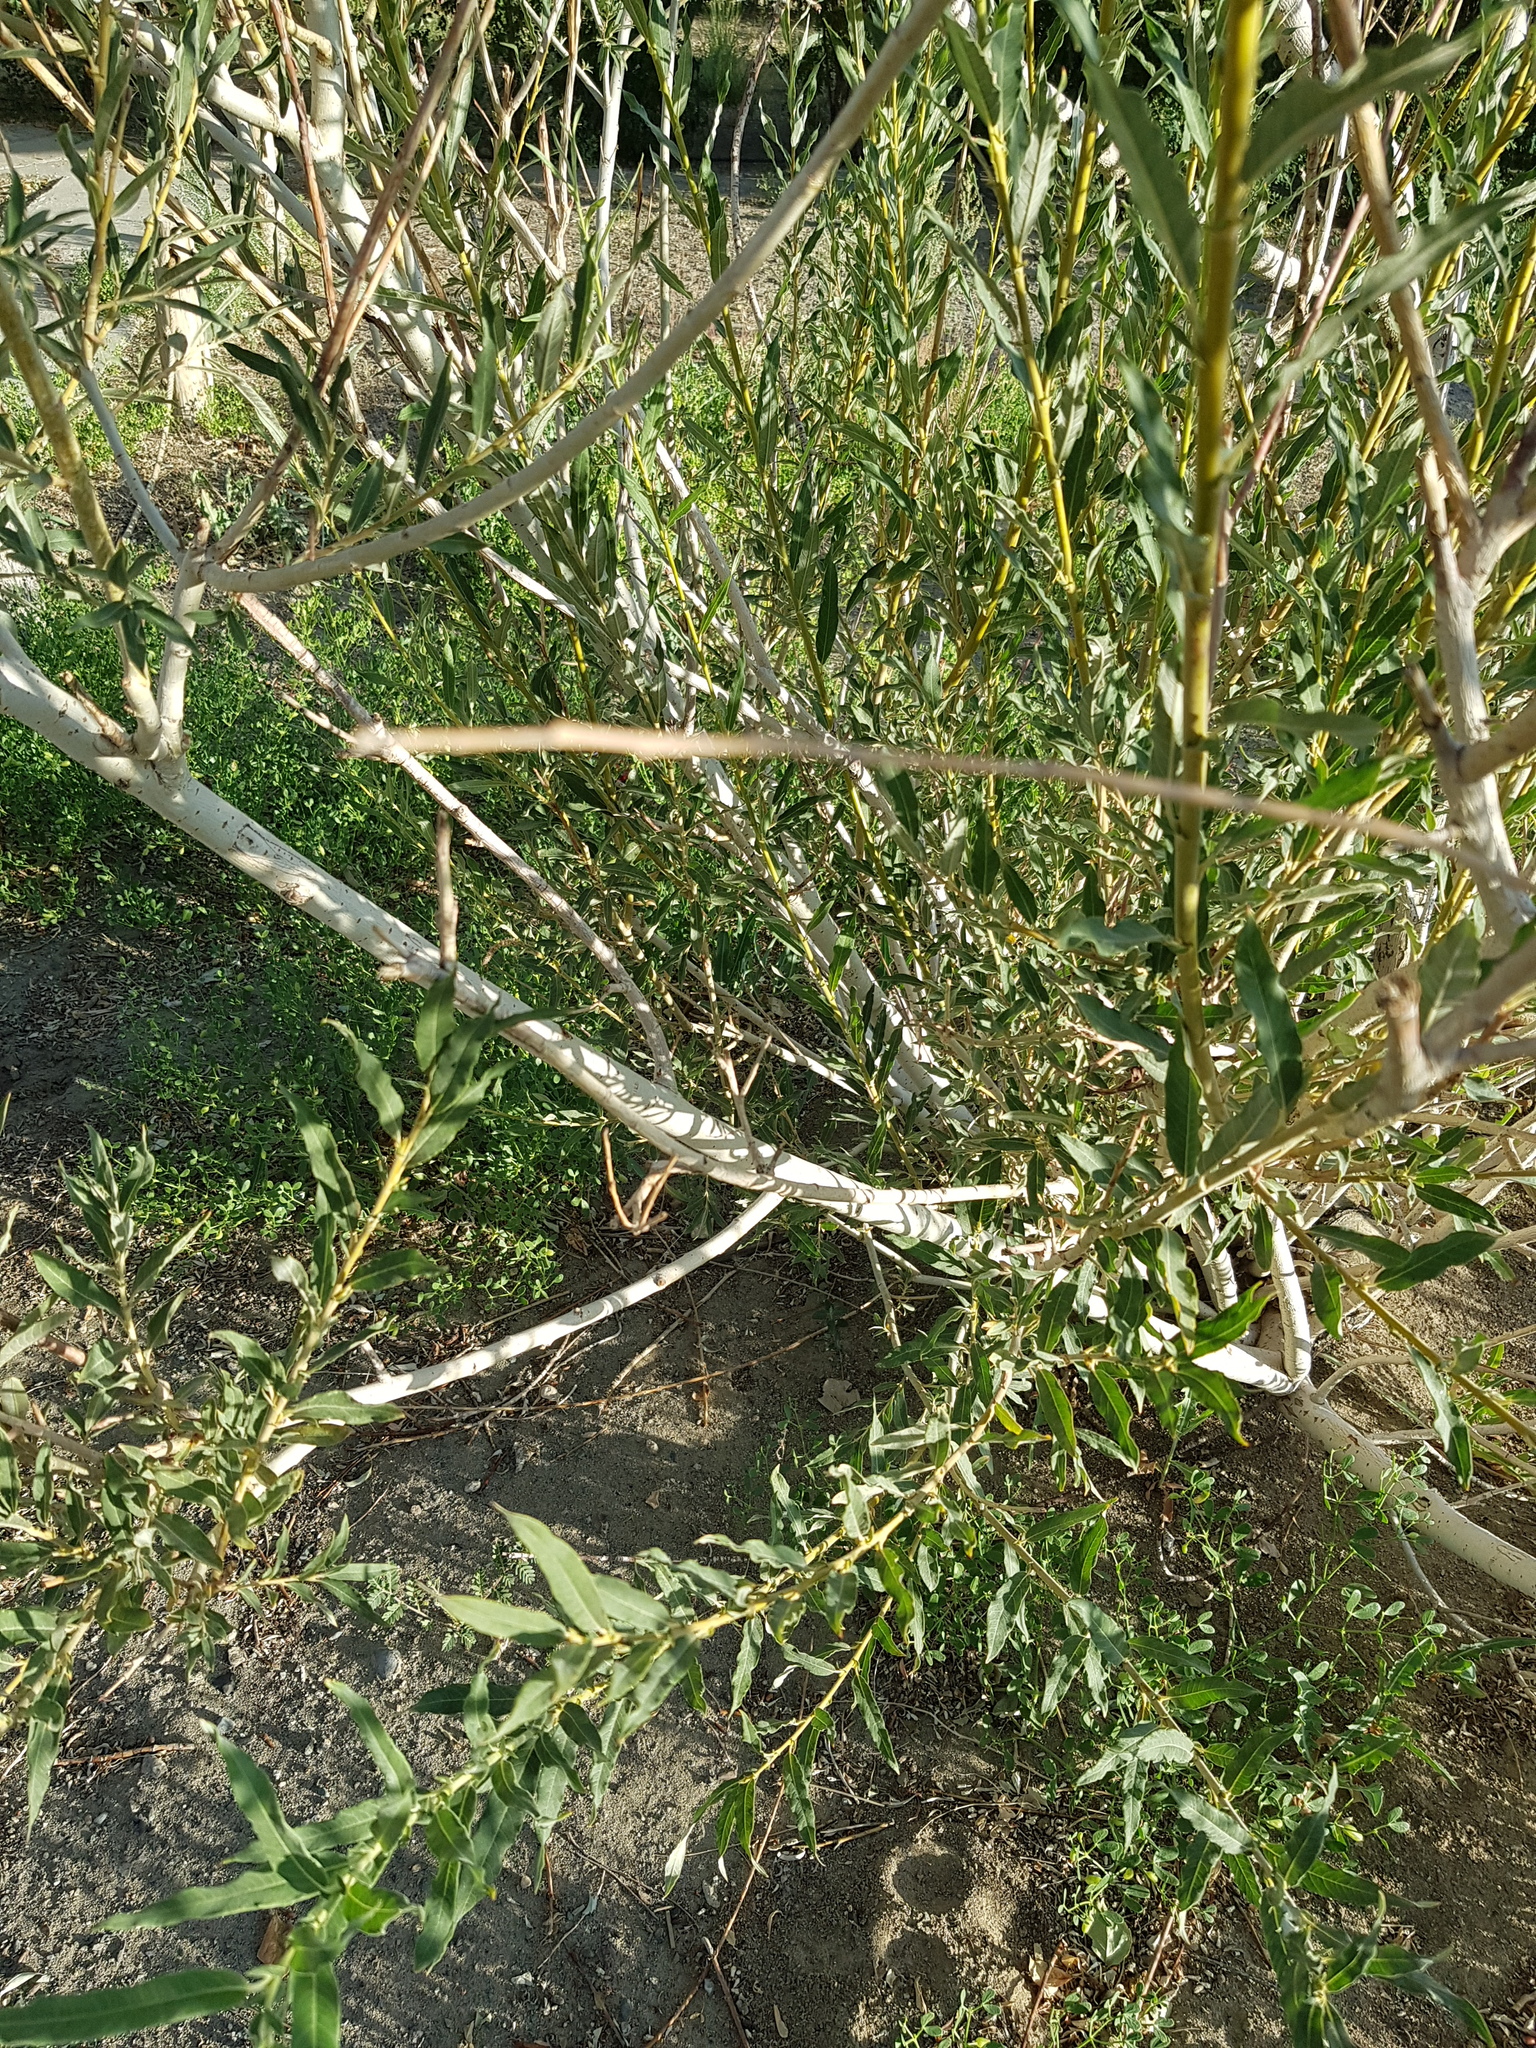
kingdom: Plantae
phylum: Tracheophyta
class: Magnoliopsida
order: Malpighiales
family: Salicaceae
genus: Salix
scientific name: Salix ledebouriana
